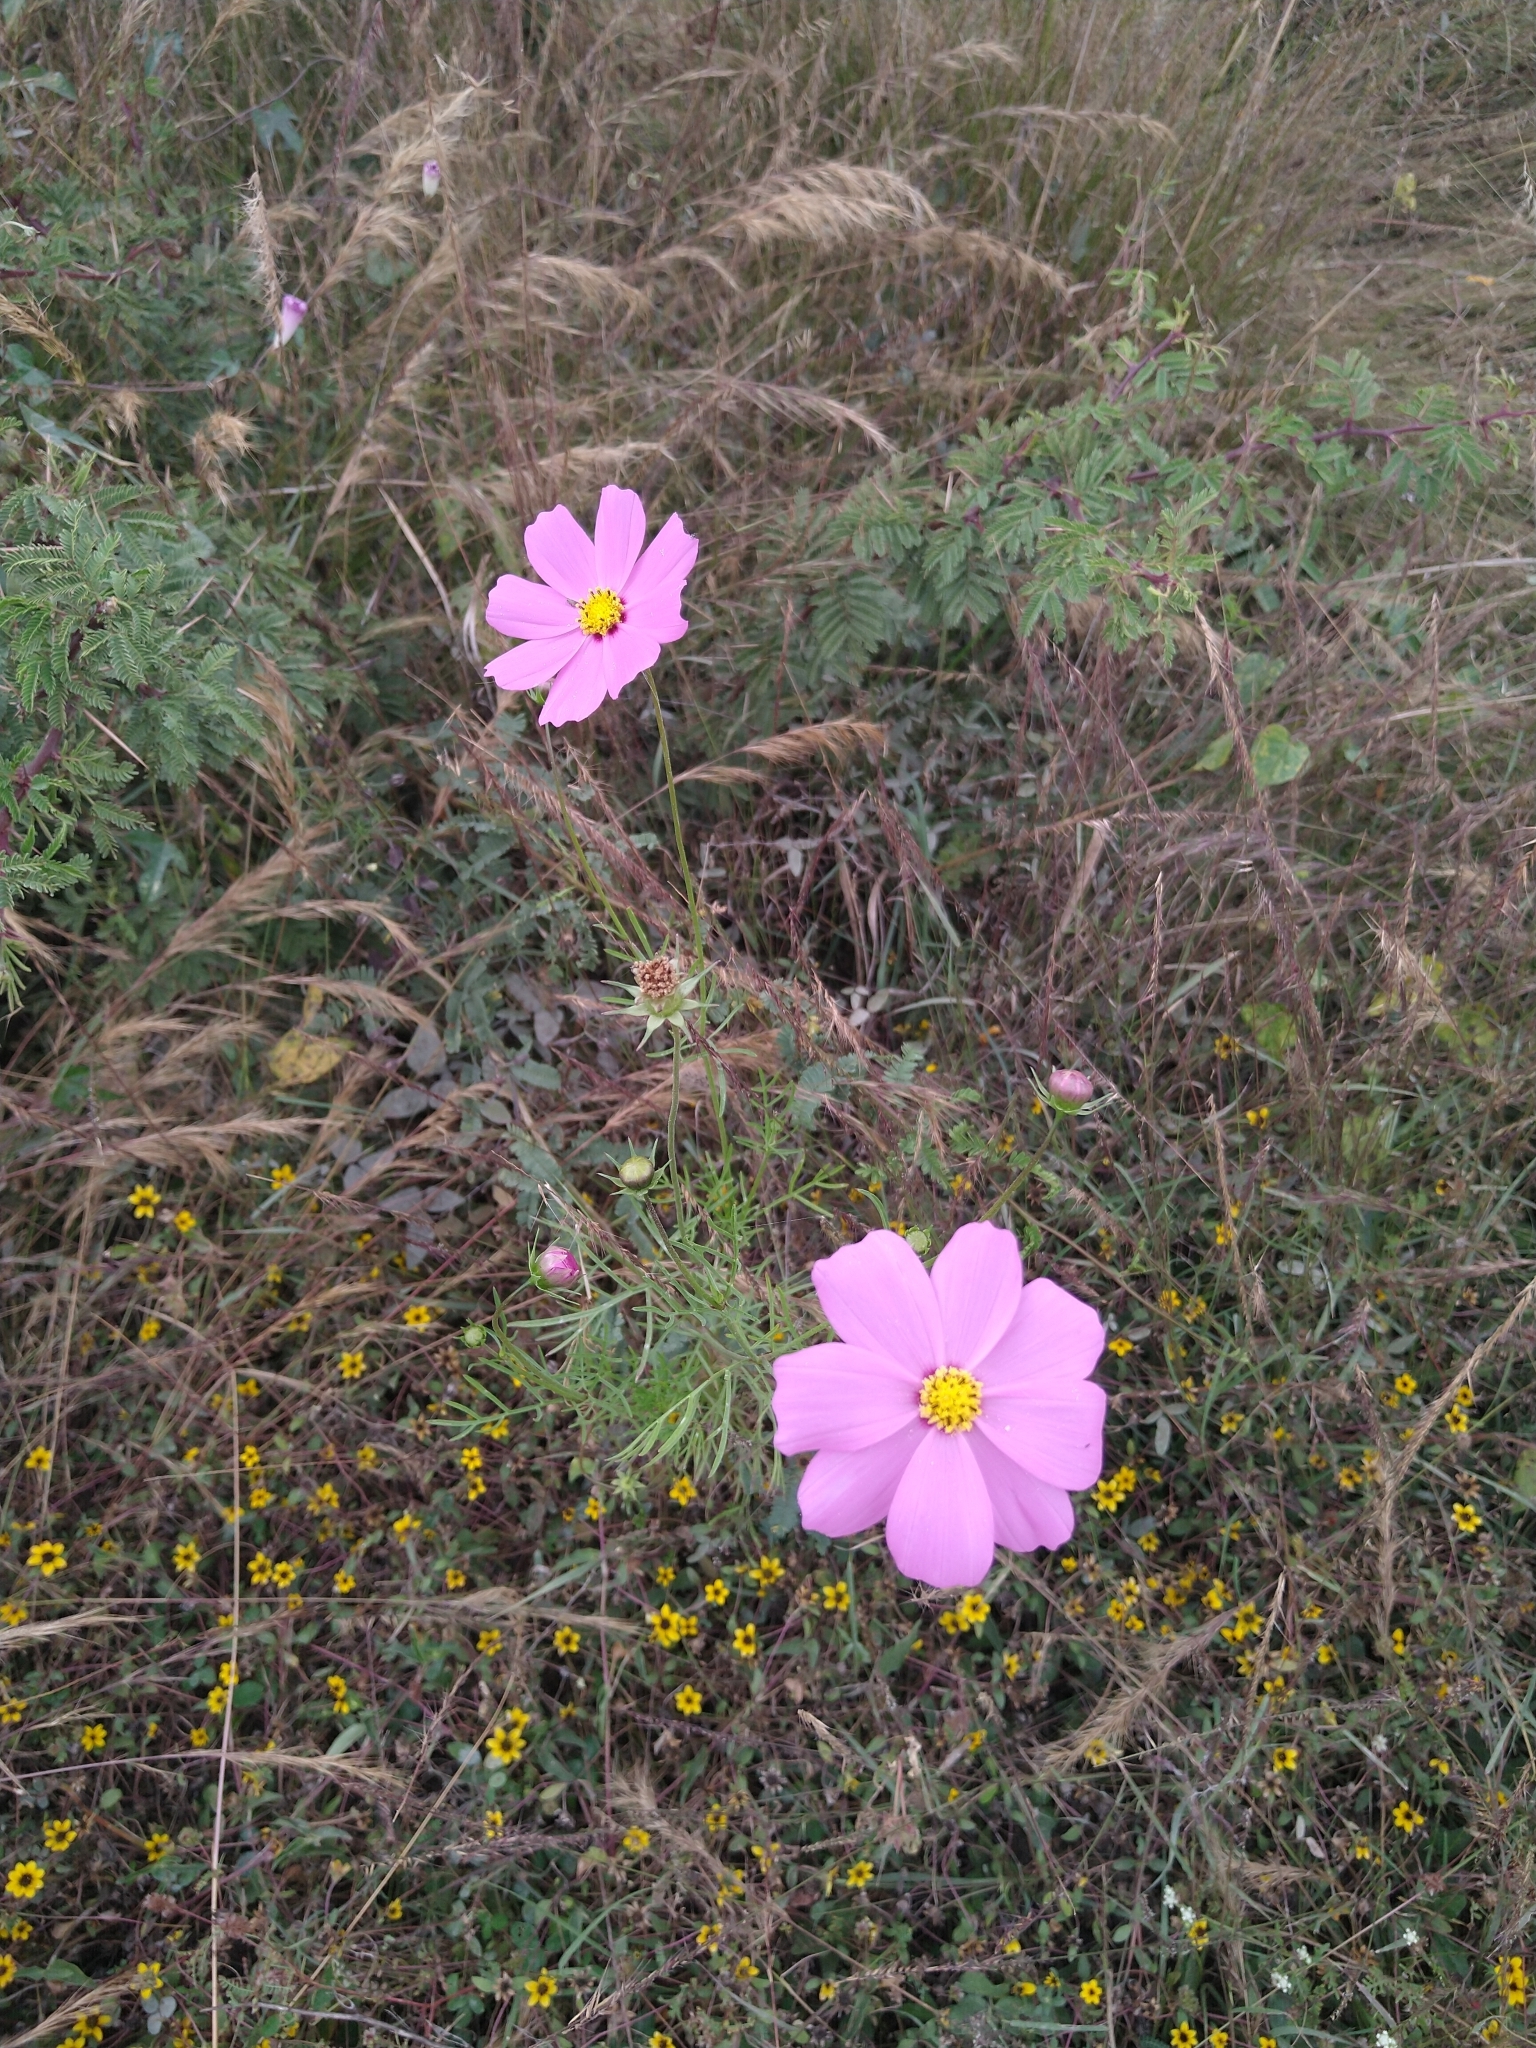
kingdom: Plantae
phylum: Tracheophyta
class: Magnoliopsida
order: Asterales
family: Asteraceae
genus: Cosmos
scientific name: Cosmos bipinnatus
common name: Garden cosmos
